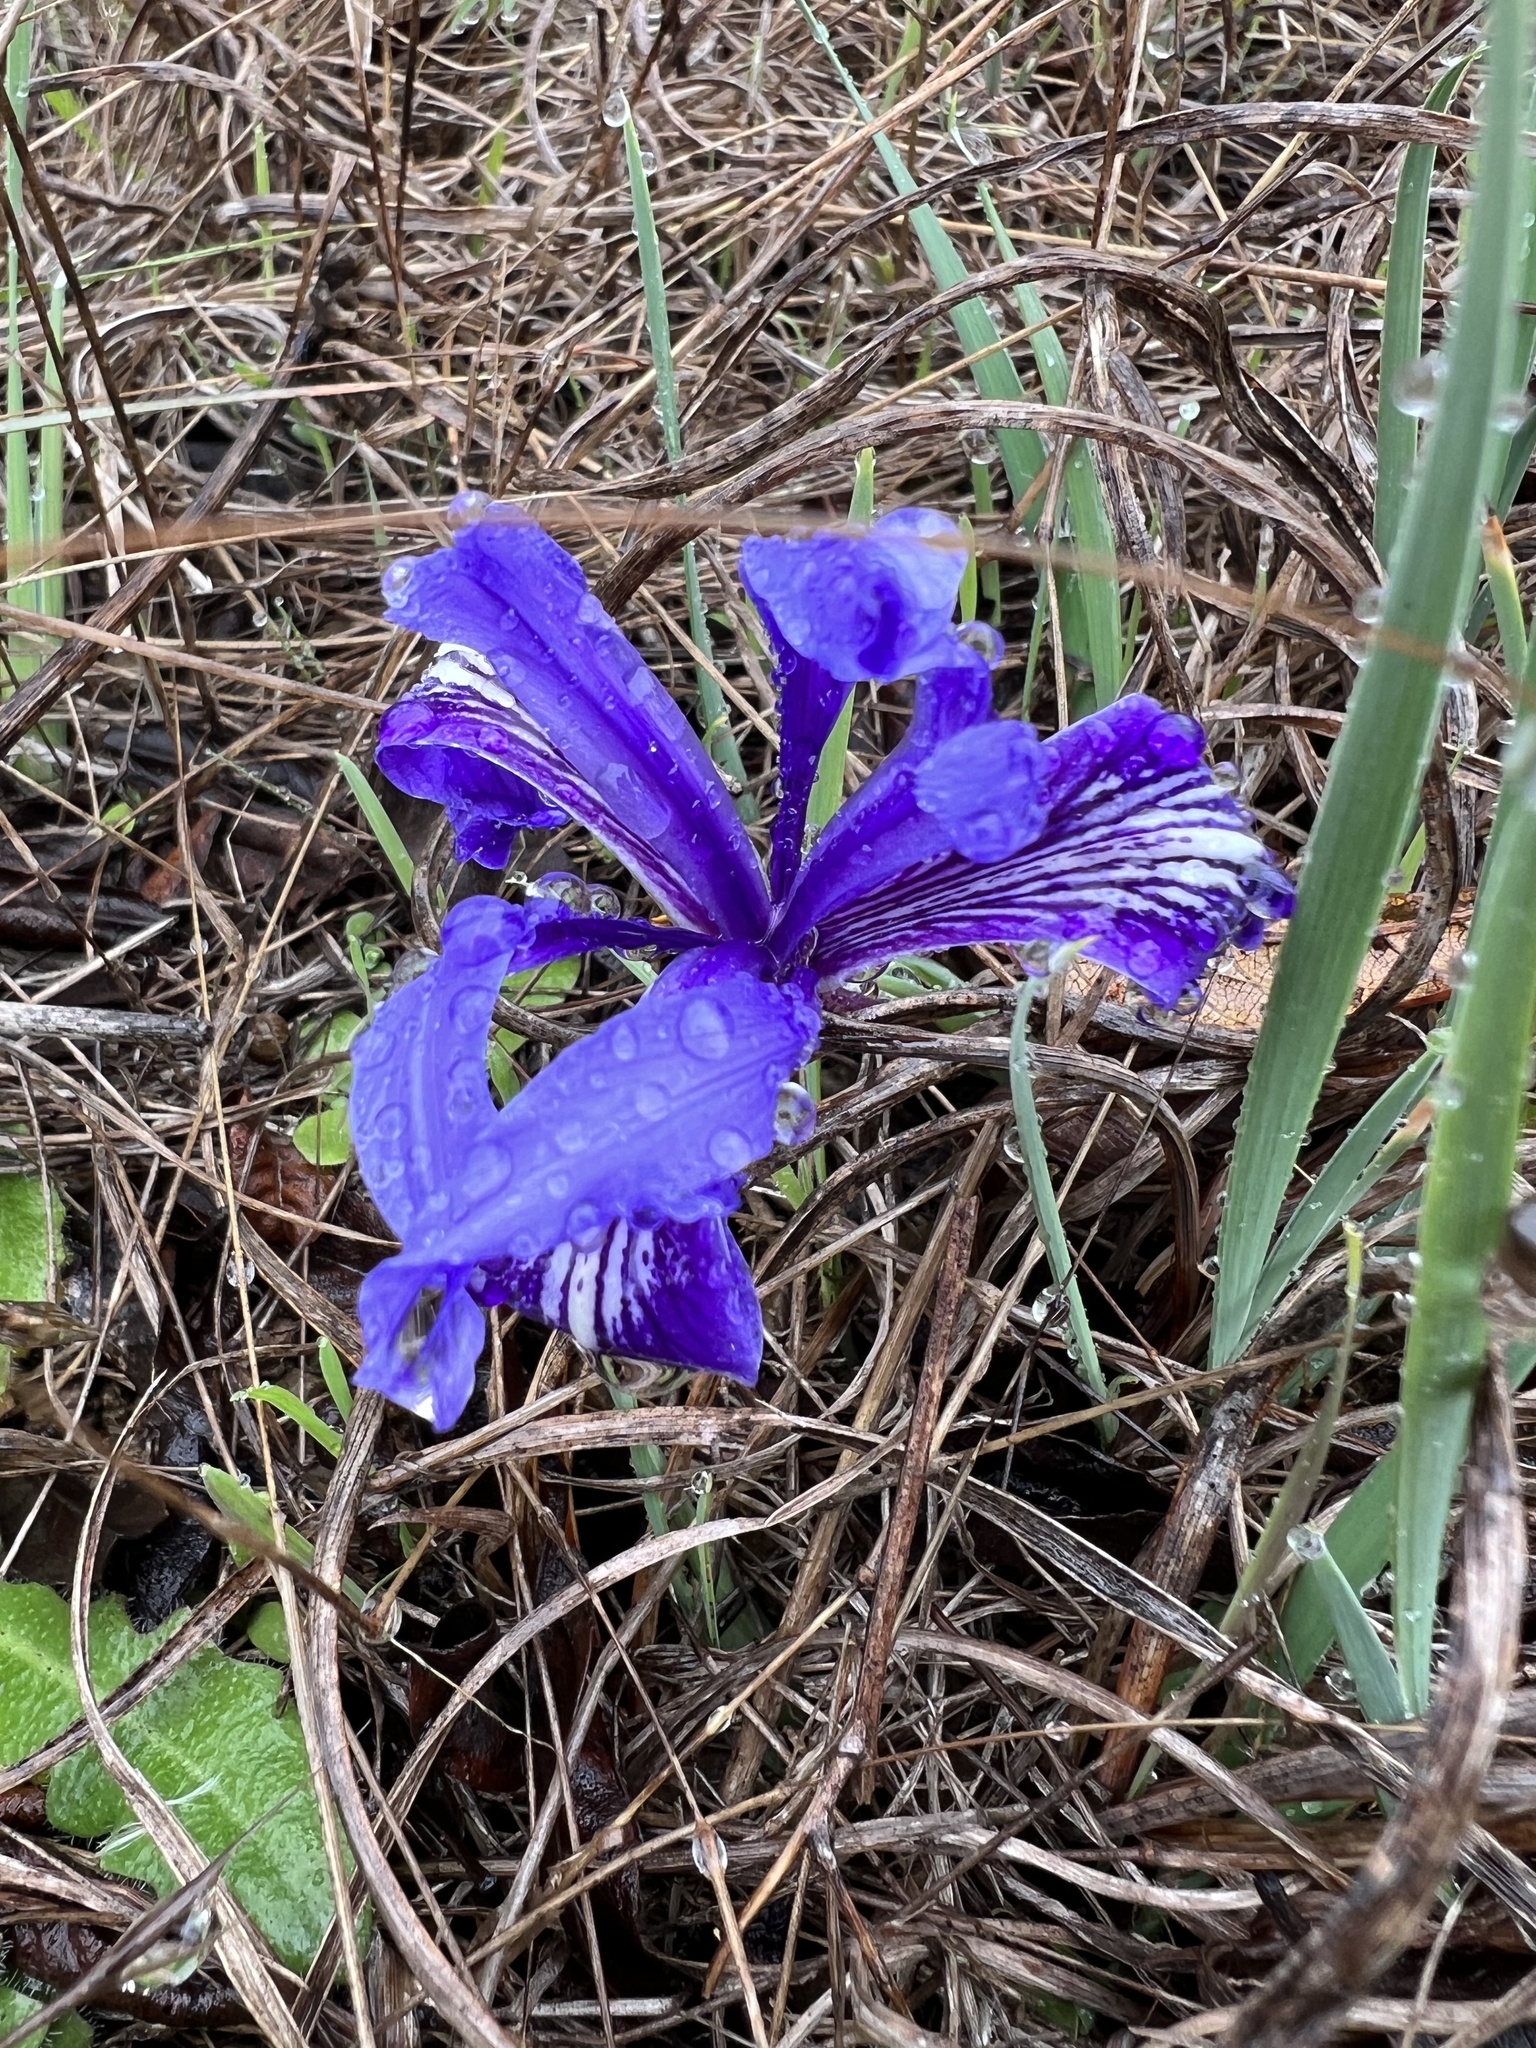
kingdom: Plantae
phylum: Tracheophyta
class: Liliopsida
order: Asparagales
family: Iridaceae
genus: Iris
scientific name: Iris macrosiphon
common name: Ground iris
